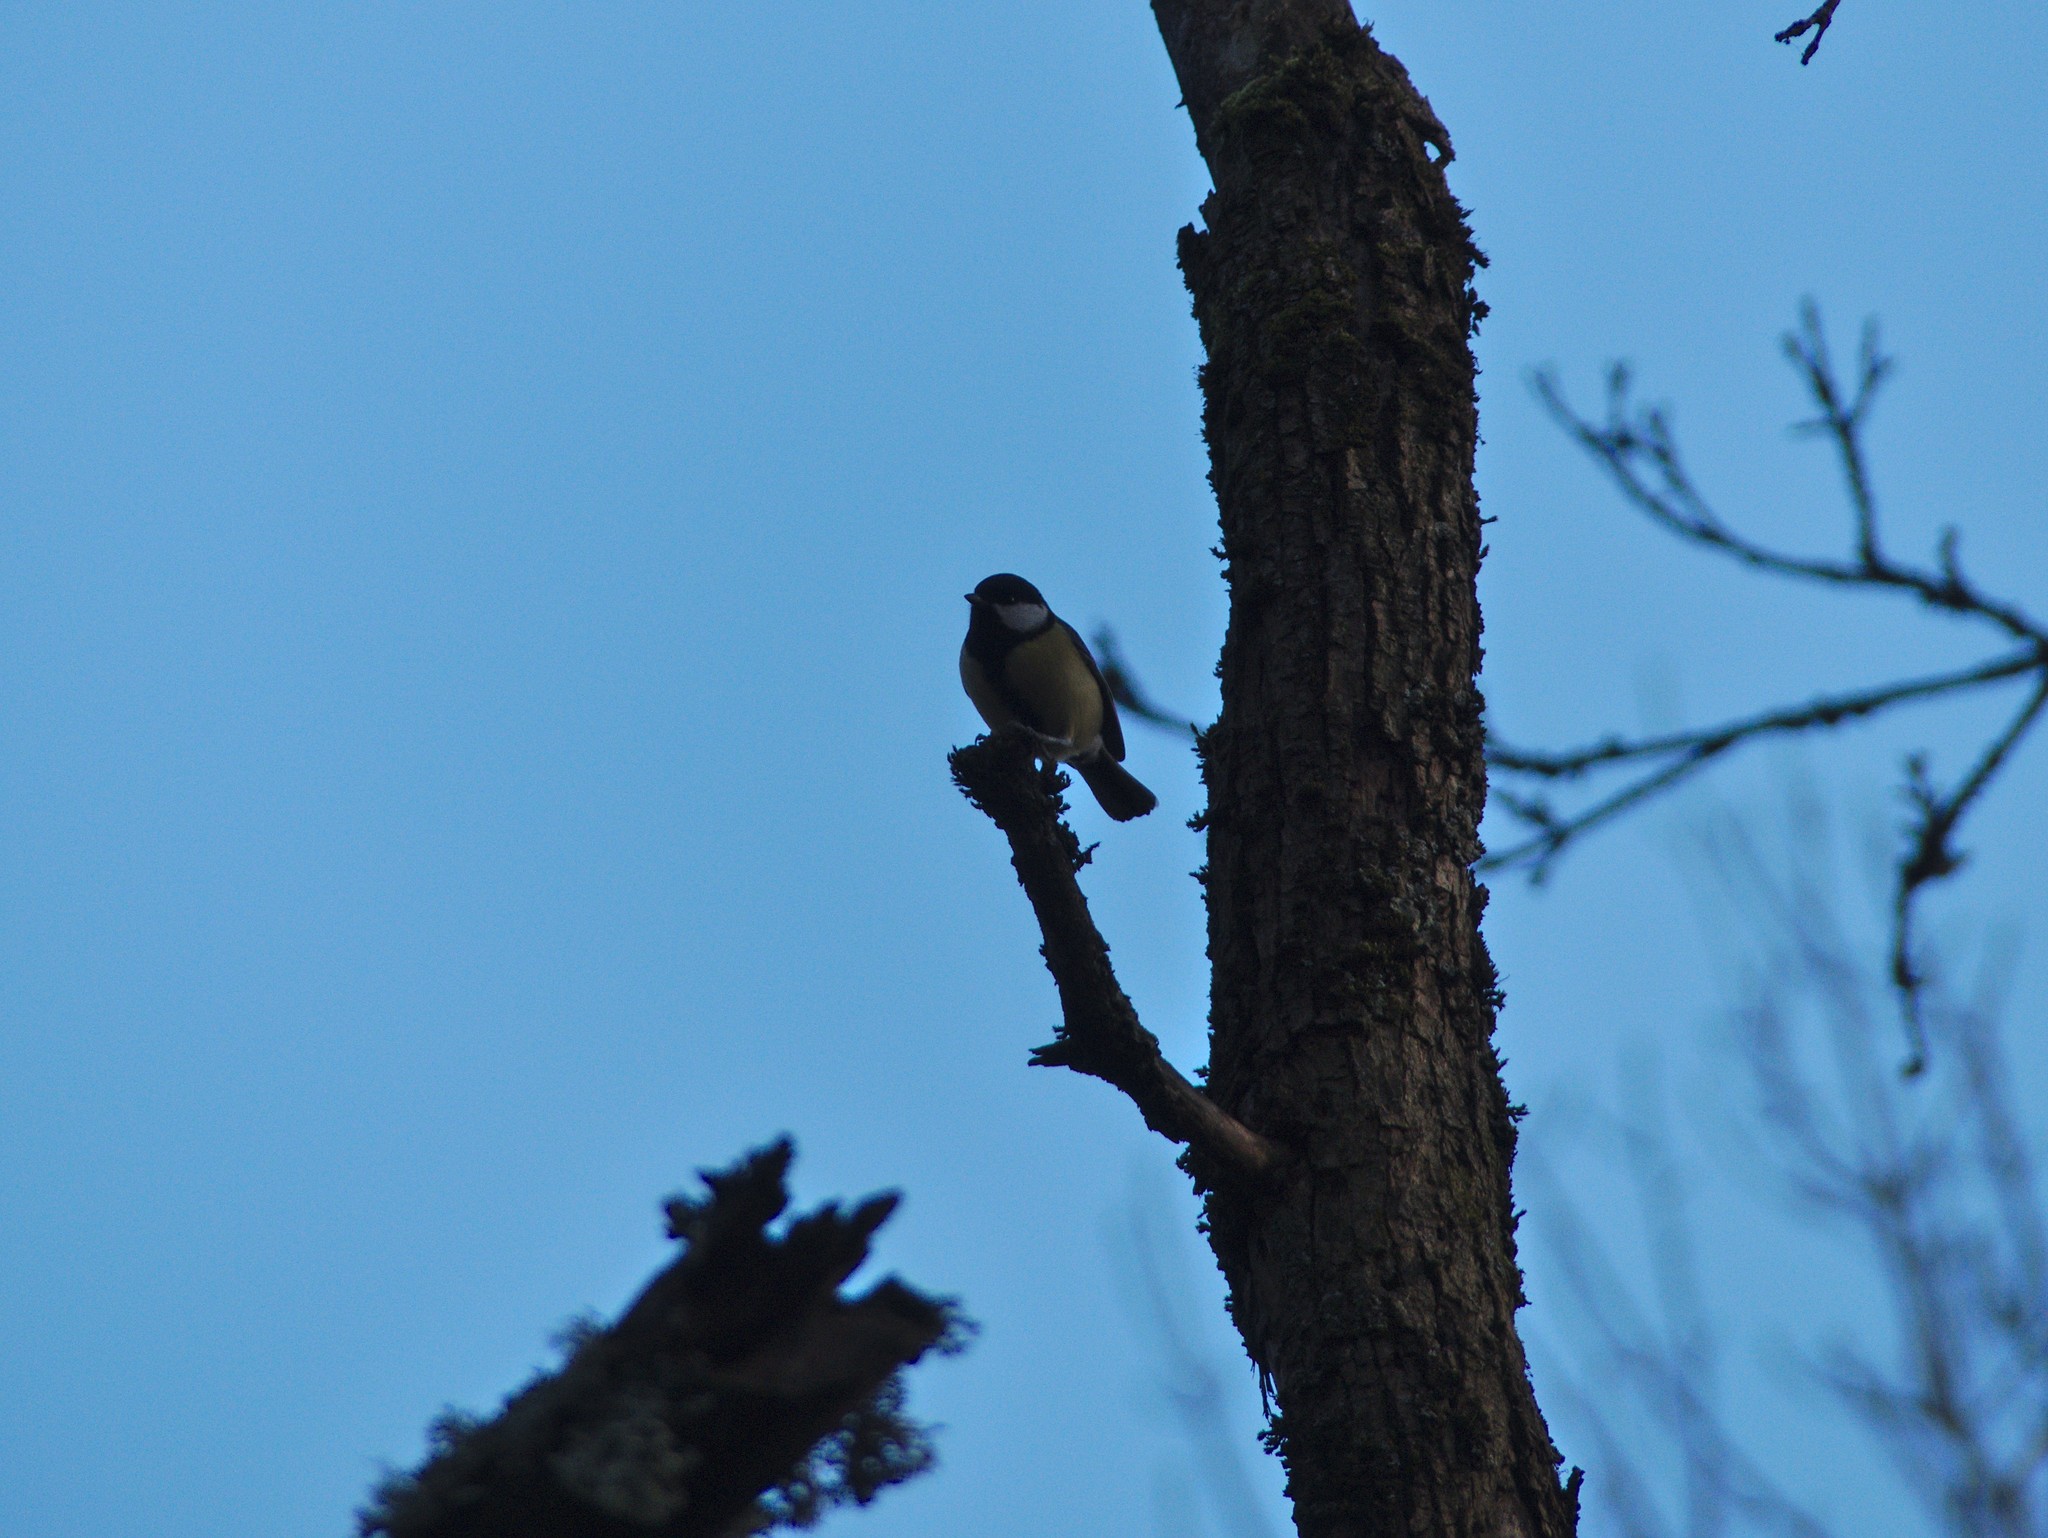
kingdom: Animalia
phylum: Chordata
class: Aves
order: Passeriformes
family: Paridae
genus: Parus
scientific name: Parus major
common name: Great tit
